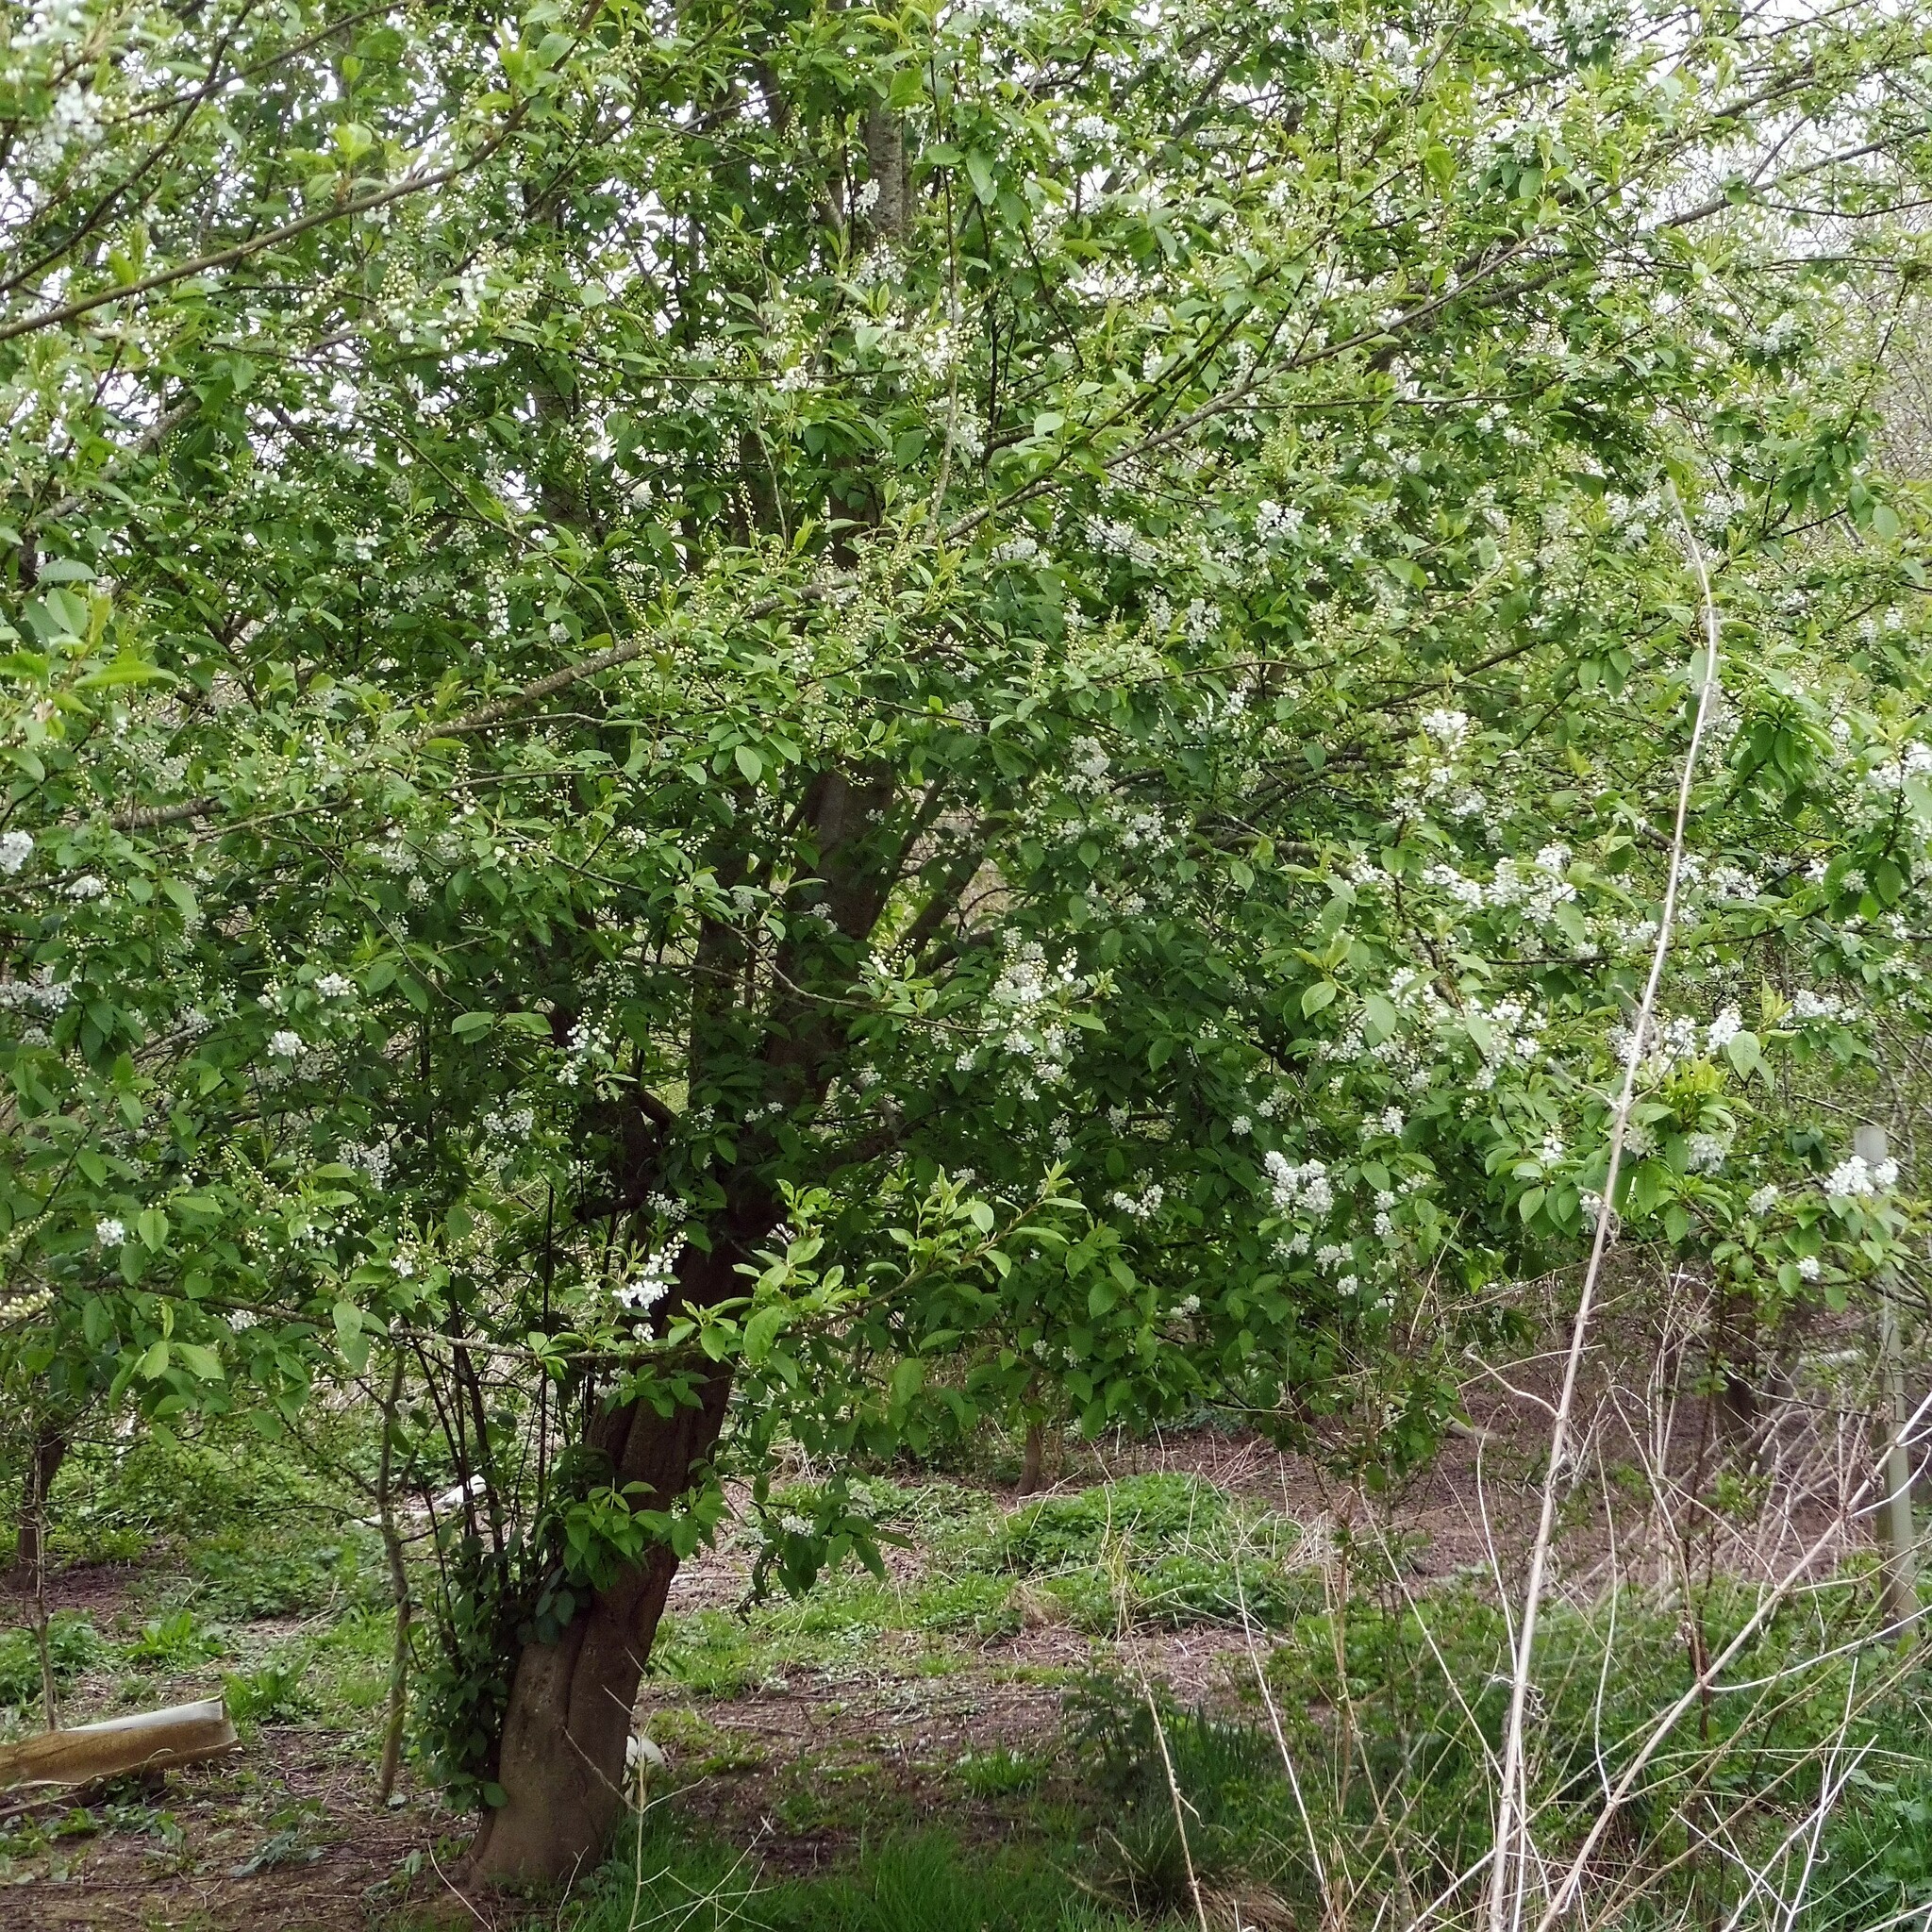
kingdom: Plantae
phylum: Tracheophyta
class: Magnoliopsida
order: Rosales
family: Rosaceae
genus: Prunus
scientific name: Prunus padus
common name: Bird cherry
